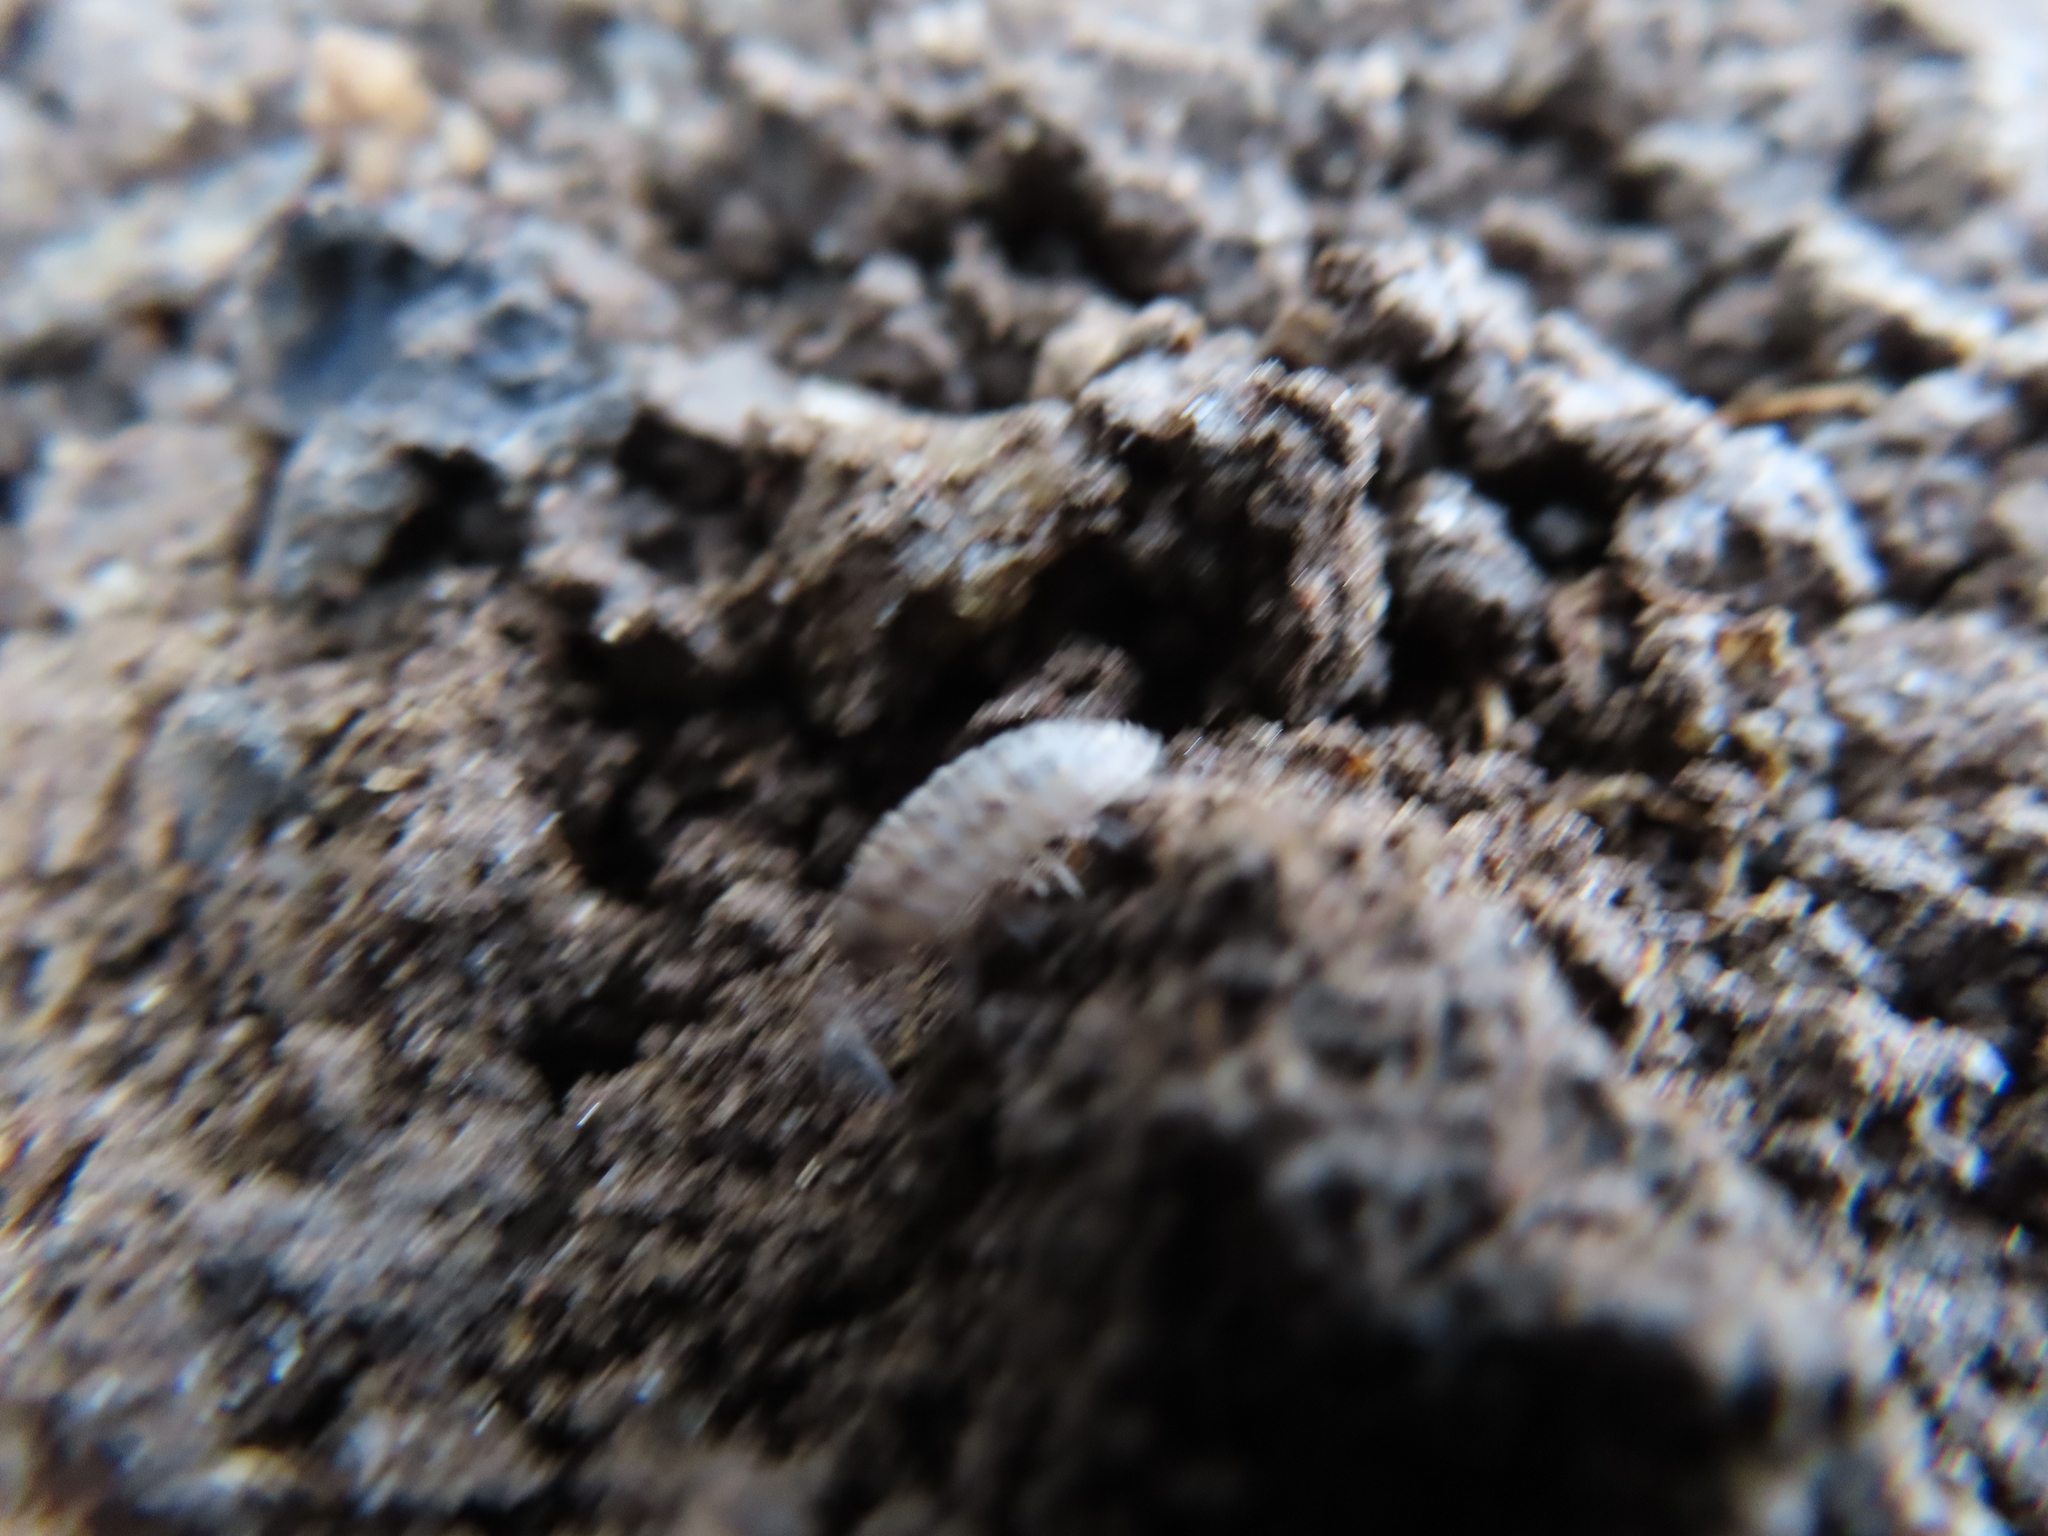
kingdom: Animalia
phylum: Arthropoda
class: Malacostraca
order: Isopoda
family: Armadillidiidae
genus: Armadillidium
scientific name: Armadillidium nasatum
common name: Isopod
